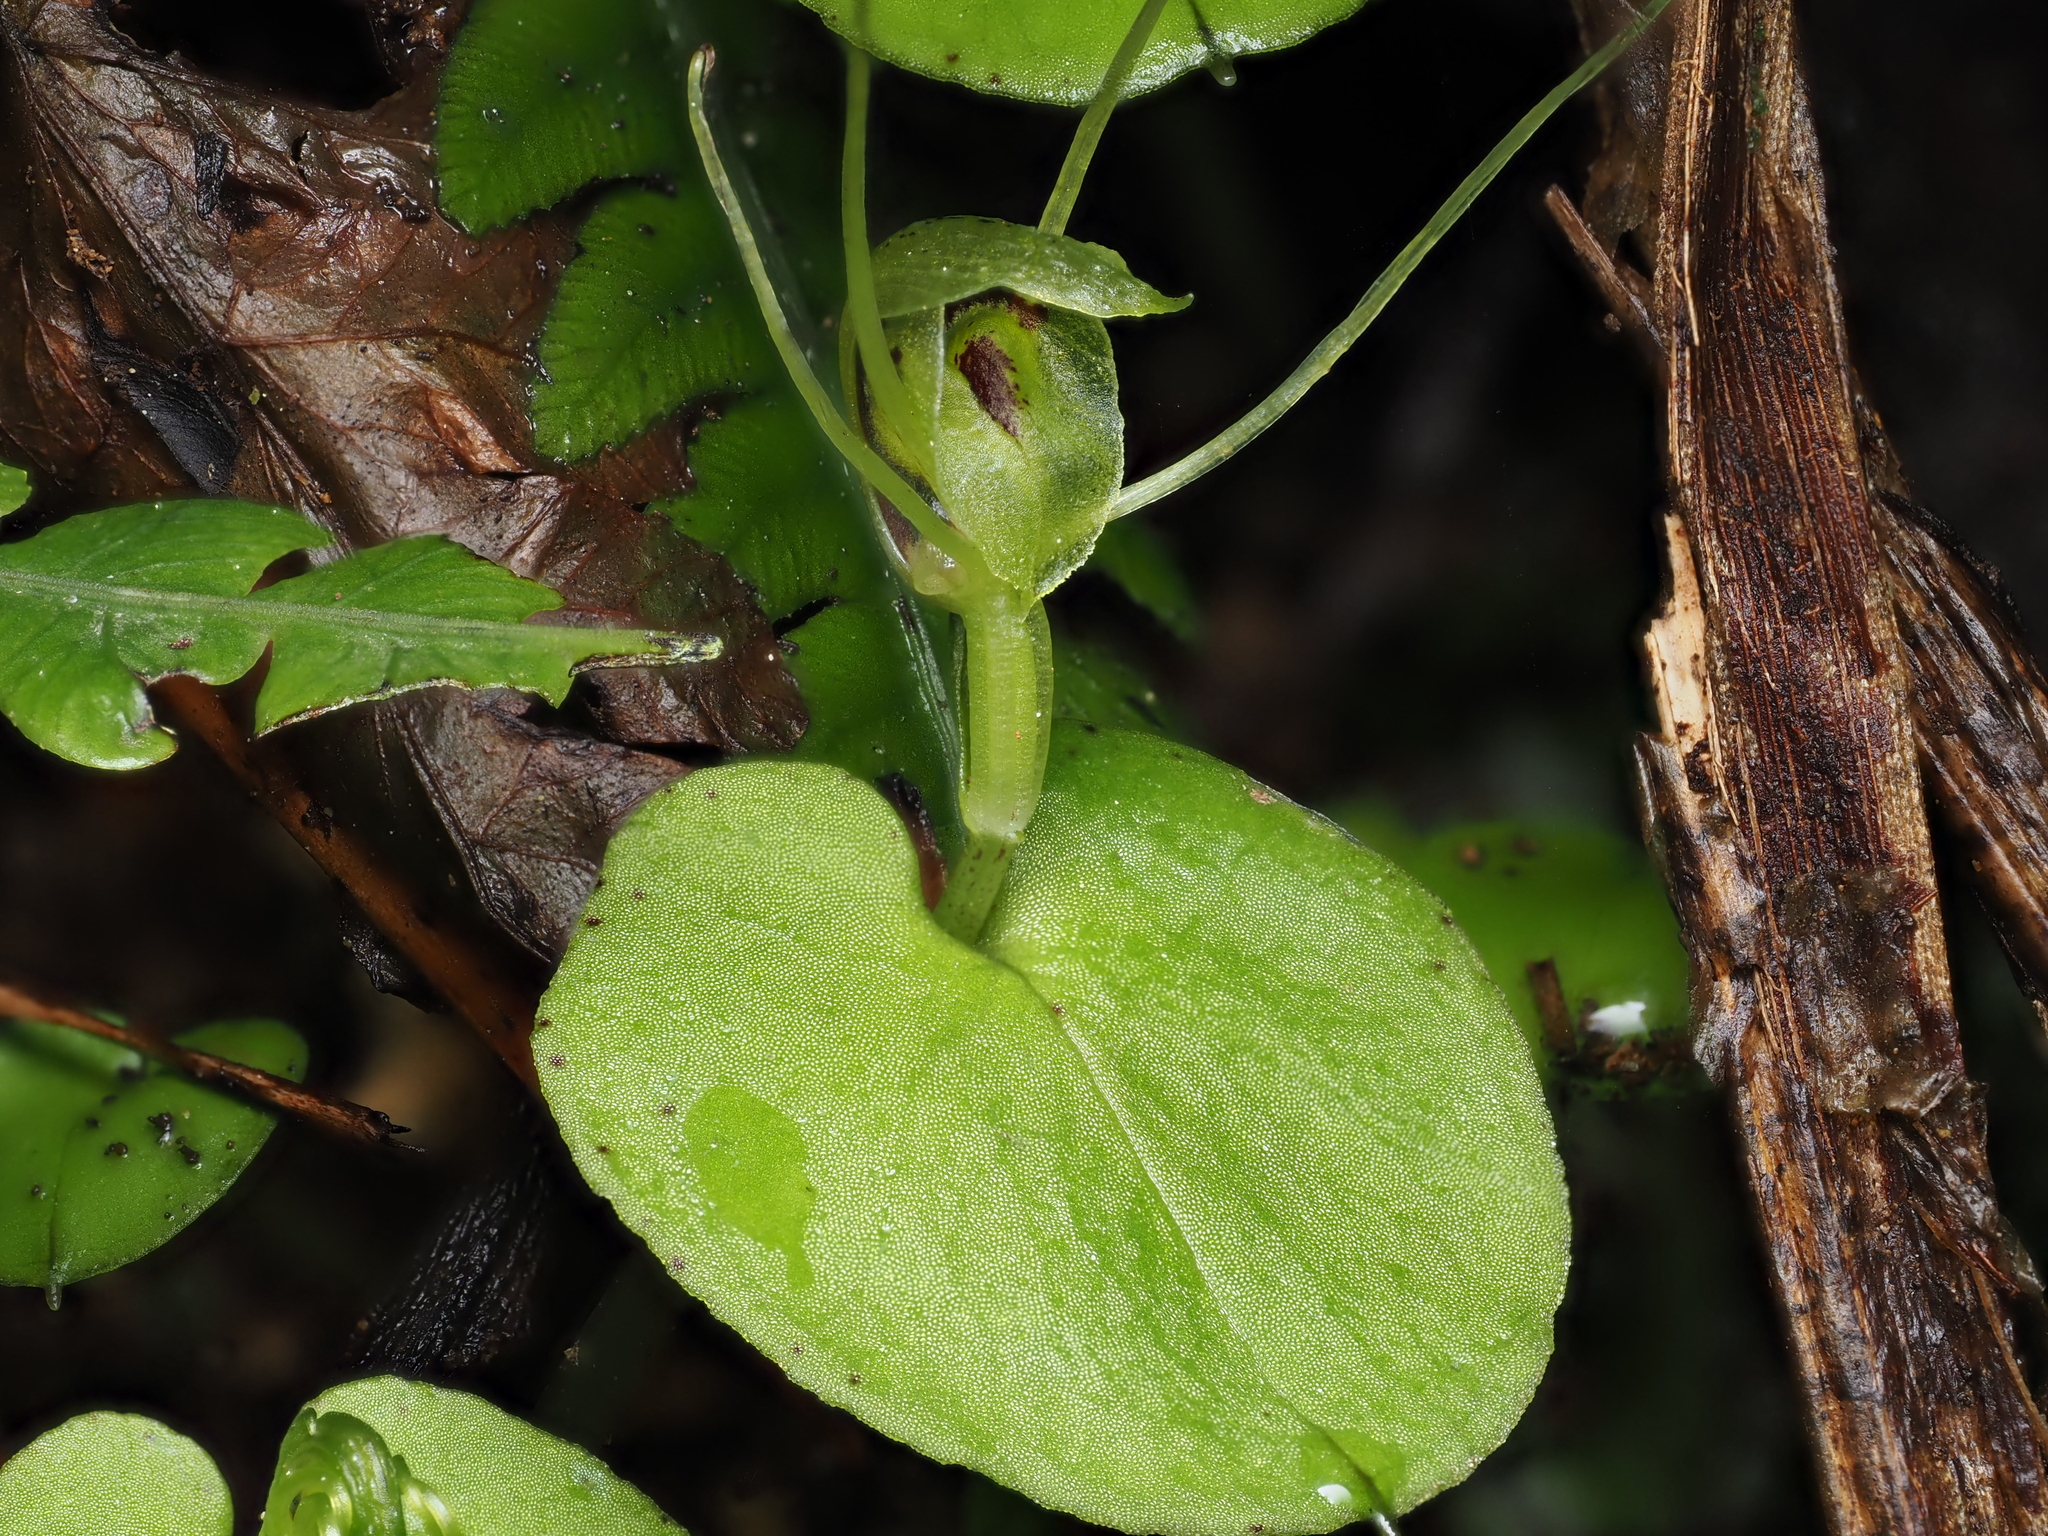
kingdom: Plantae
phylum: Tracheophyta
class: Liliopsida
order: Asparagales
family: Orchidaceae
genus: Corybas
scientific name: Corybas papa
